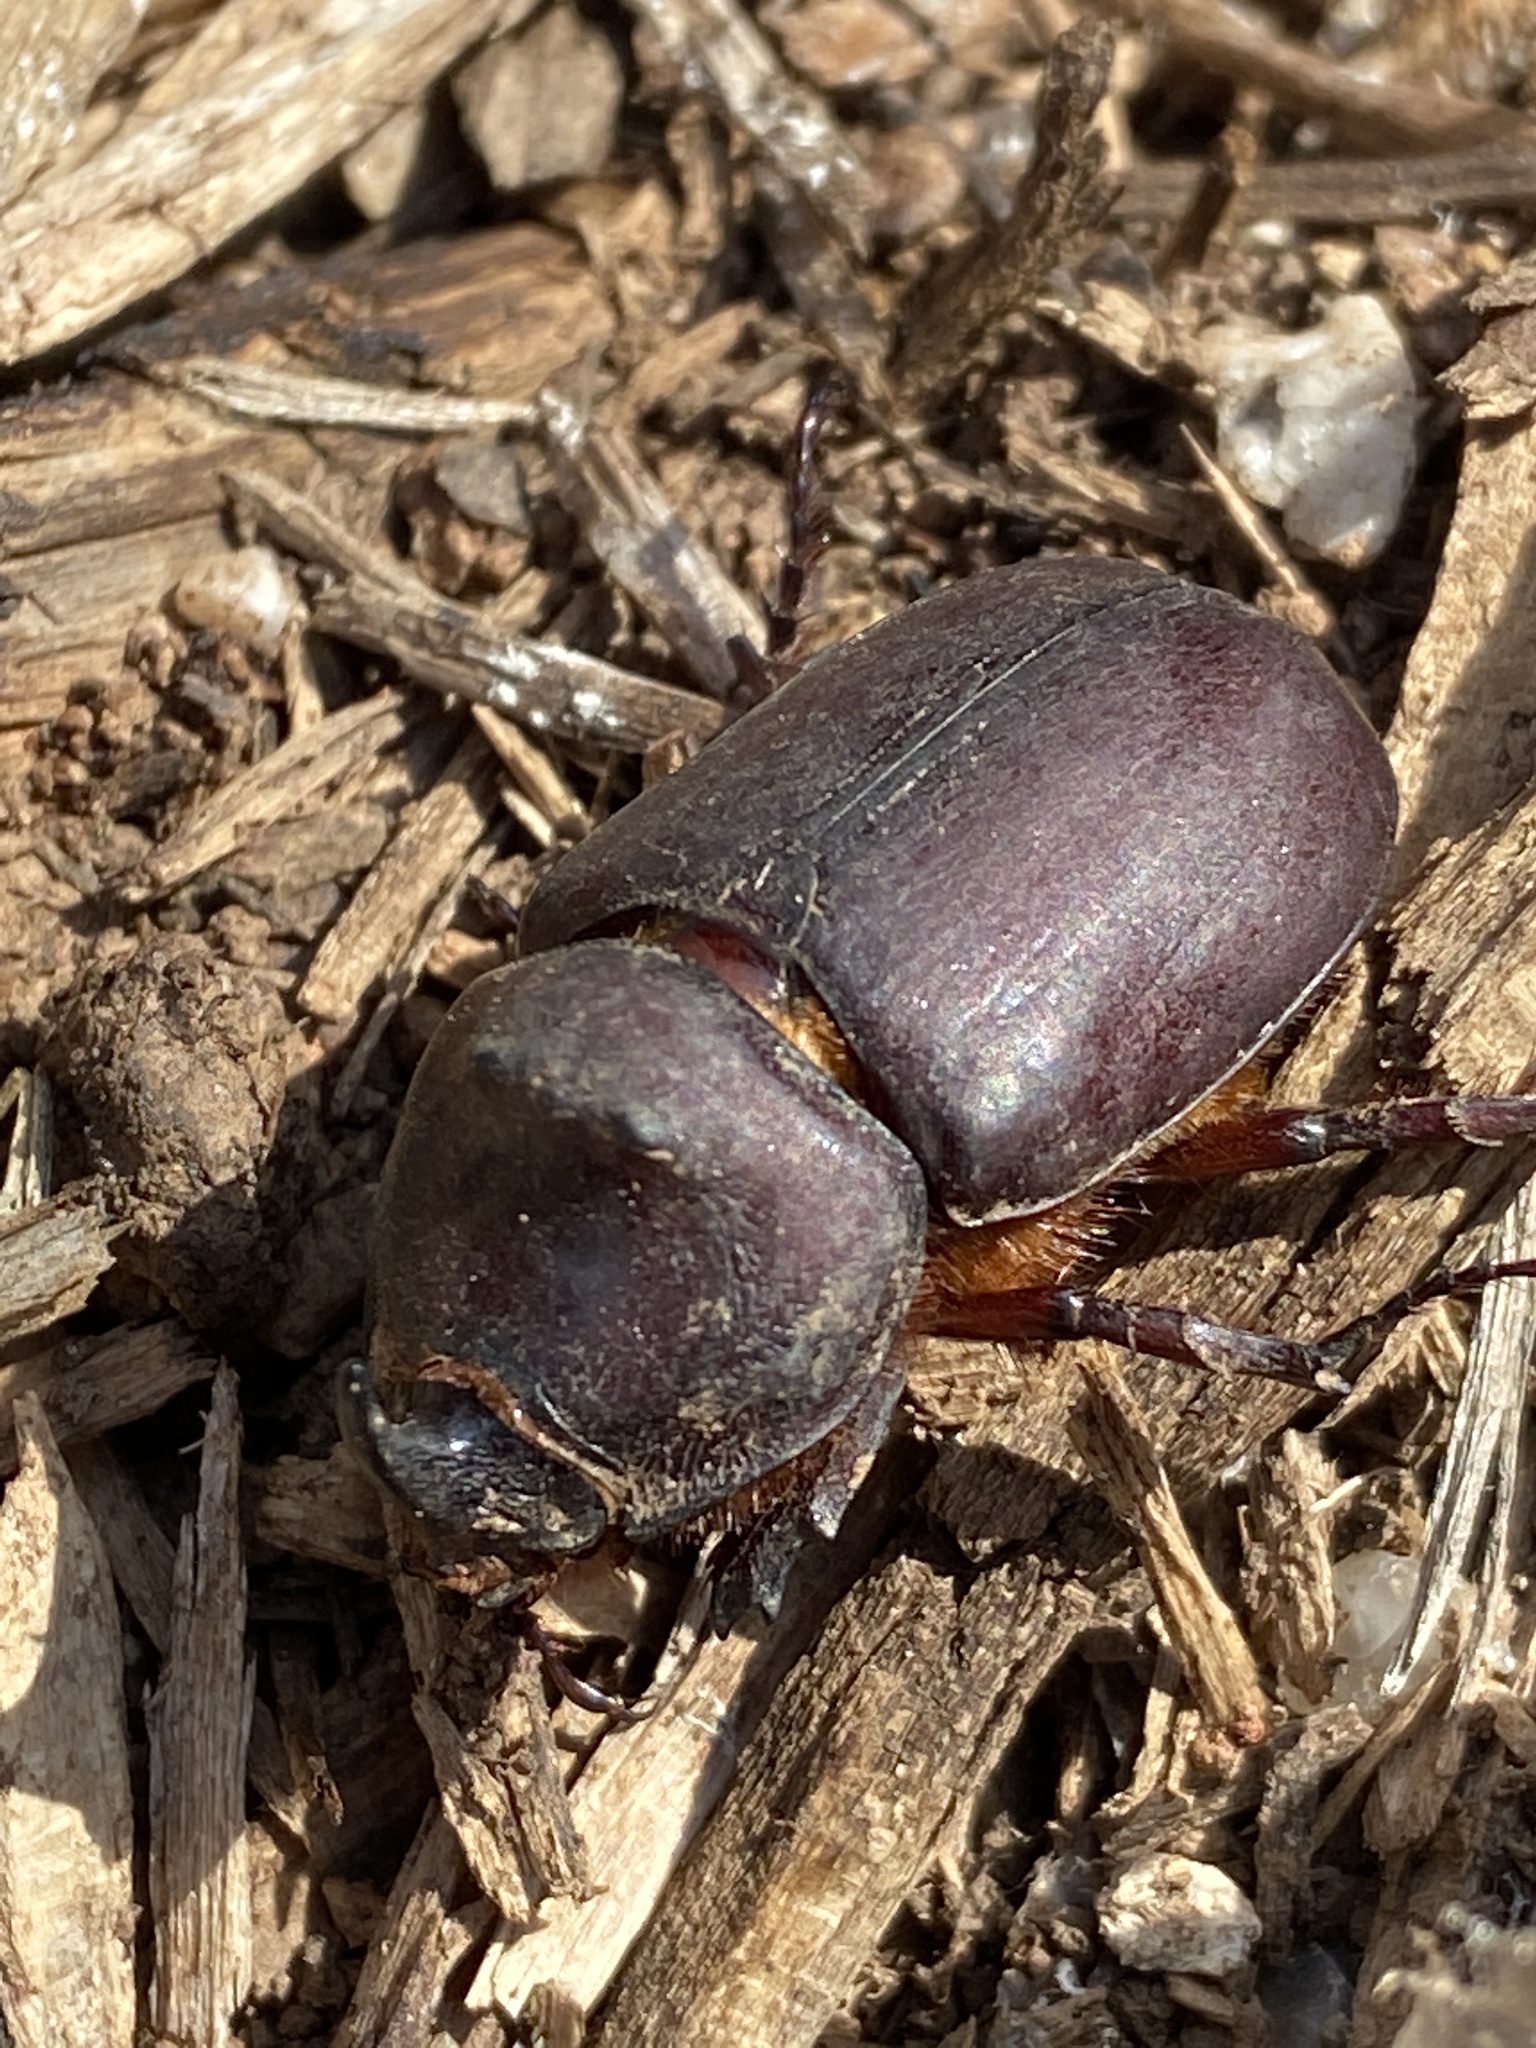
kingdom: Animalia
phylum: Arthropoda
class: Insecta
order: Coleoptera
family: Scarabaeidae
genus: Oryctes
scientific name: Oryctes nasicornis
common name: European rhinoceros beetle
